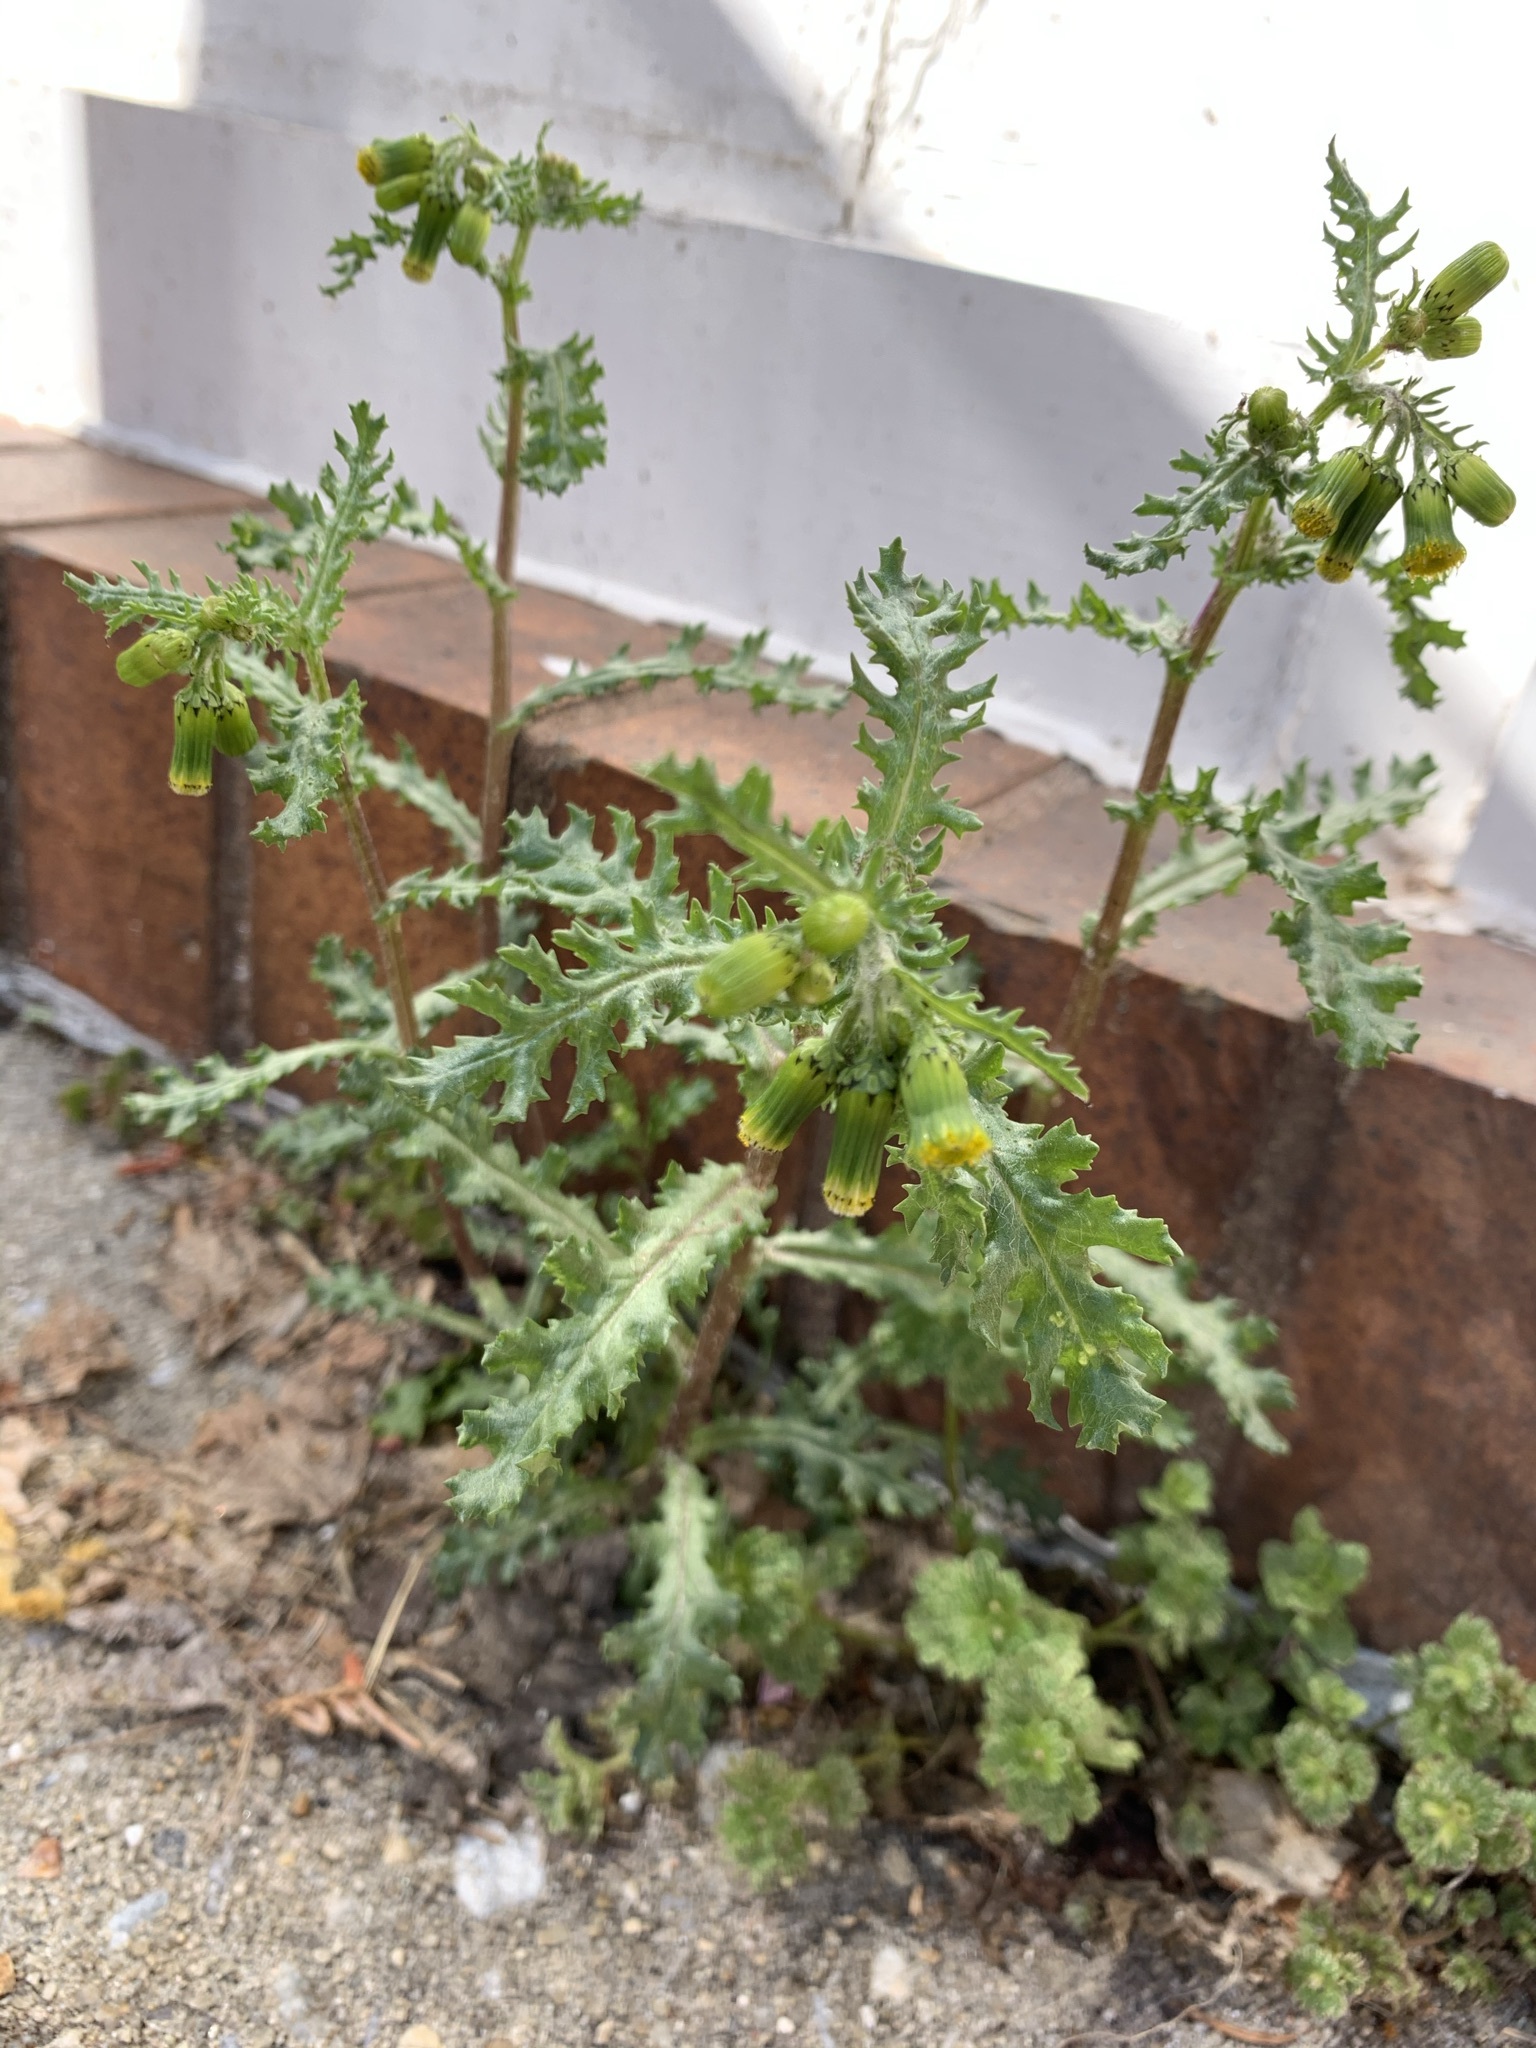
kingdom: Plantae
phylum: Tracheophyta
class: Magnoliopsida
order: Asterales
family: Asteraceae
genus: Senecio
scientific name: Senecio vulgaris
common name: Old-man-in-the-spring
